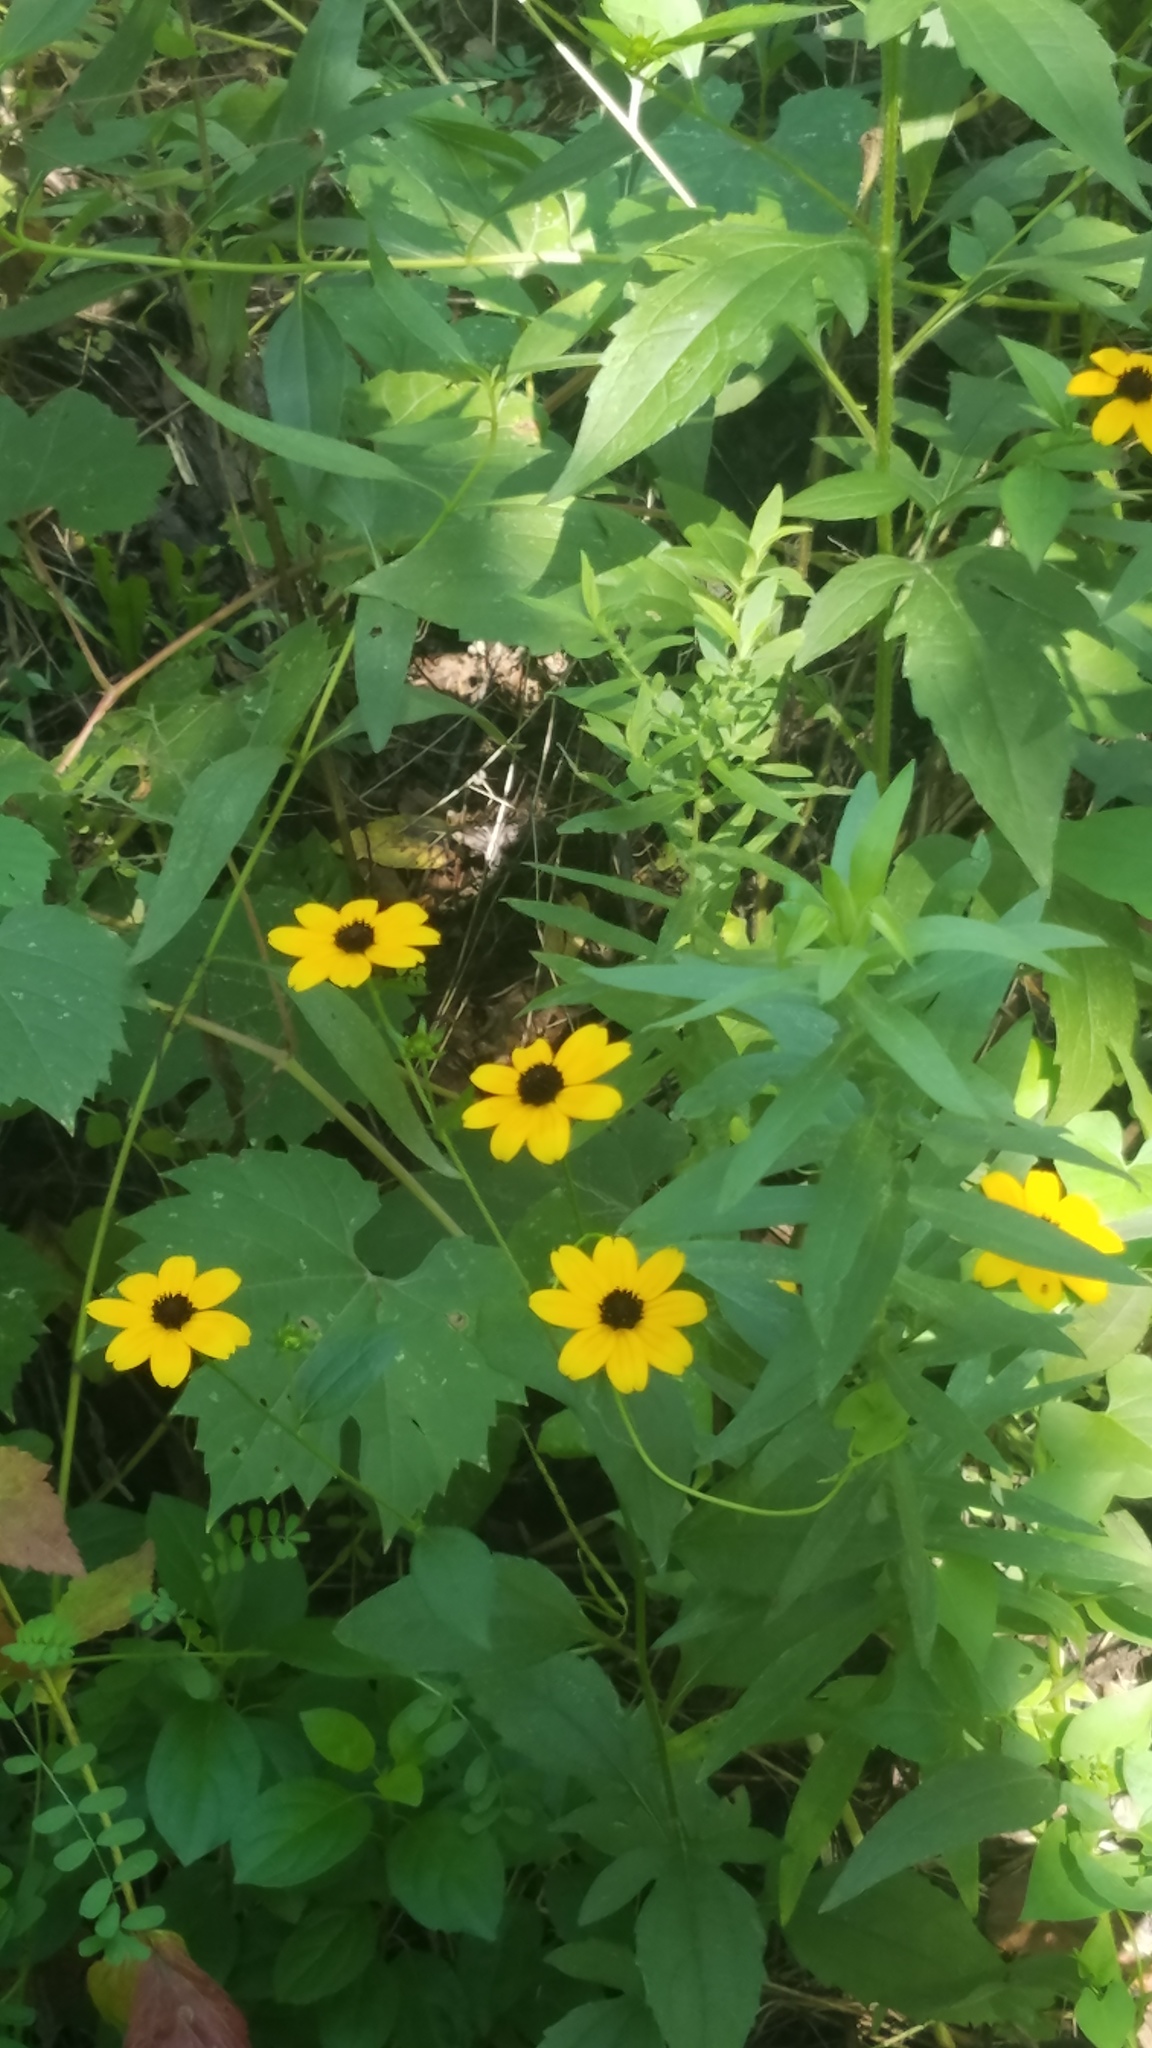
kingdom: Plantae
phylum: Tracheophyta
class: Magnoliopsida
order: Asterales
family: Asteraceae
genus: Rudbeckia
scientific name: Rudbeckia triloba
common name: Thin-leaved coneflower
